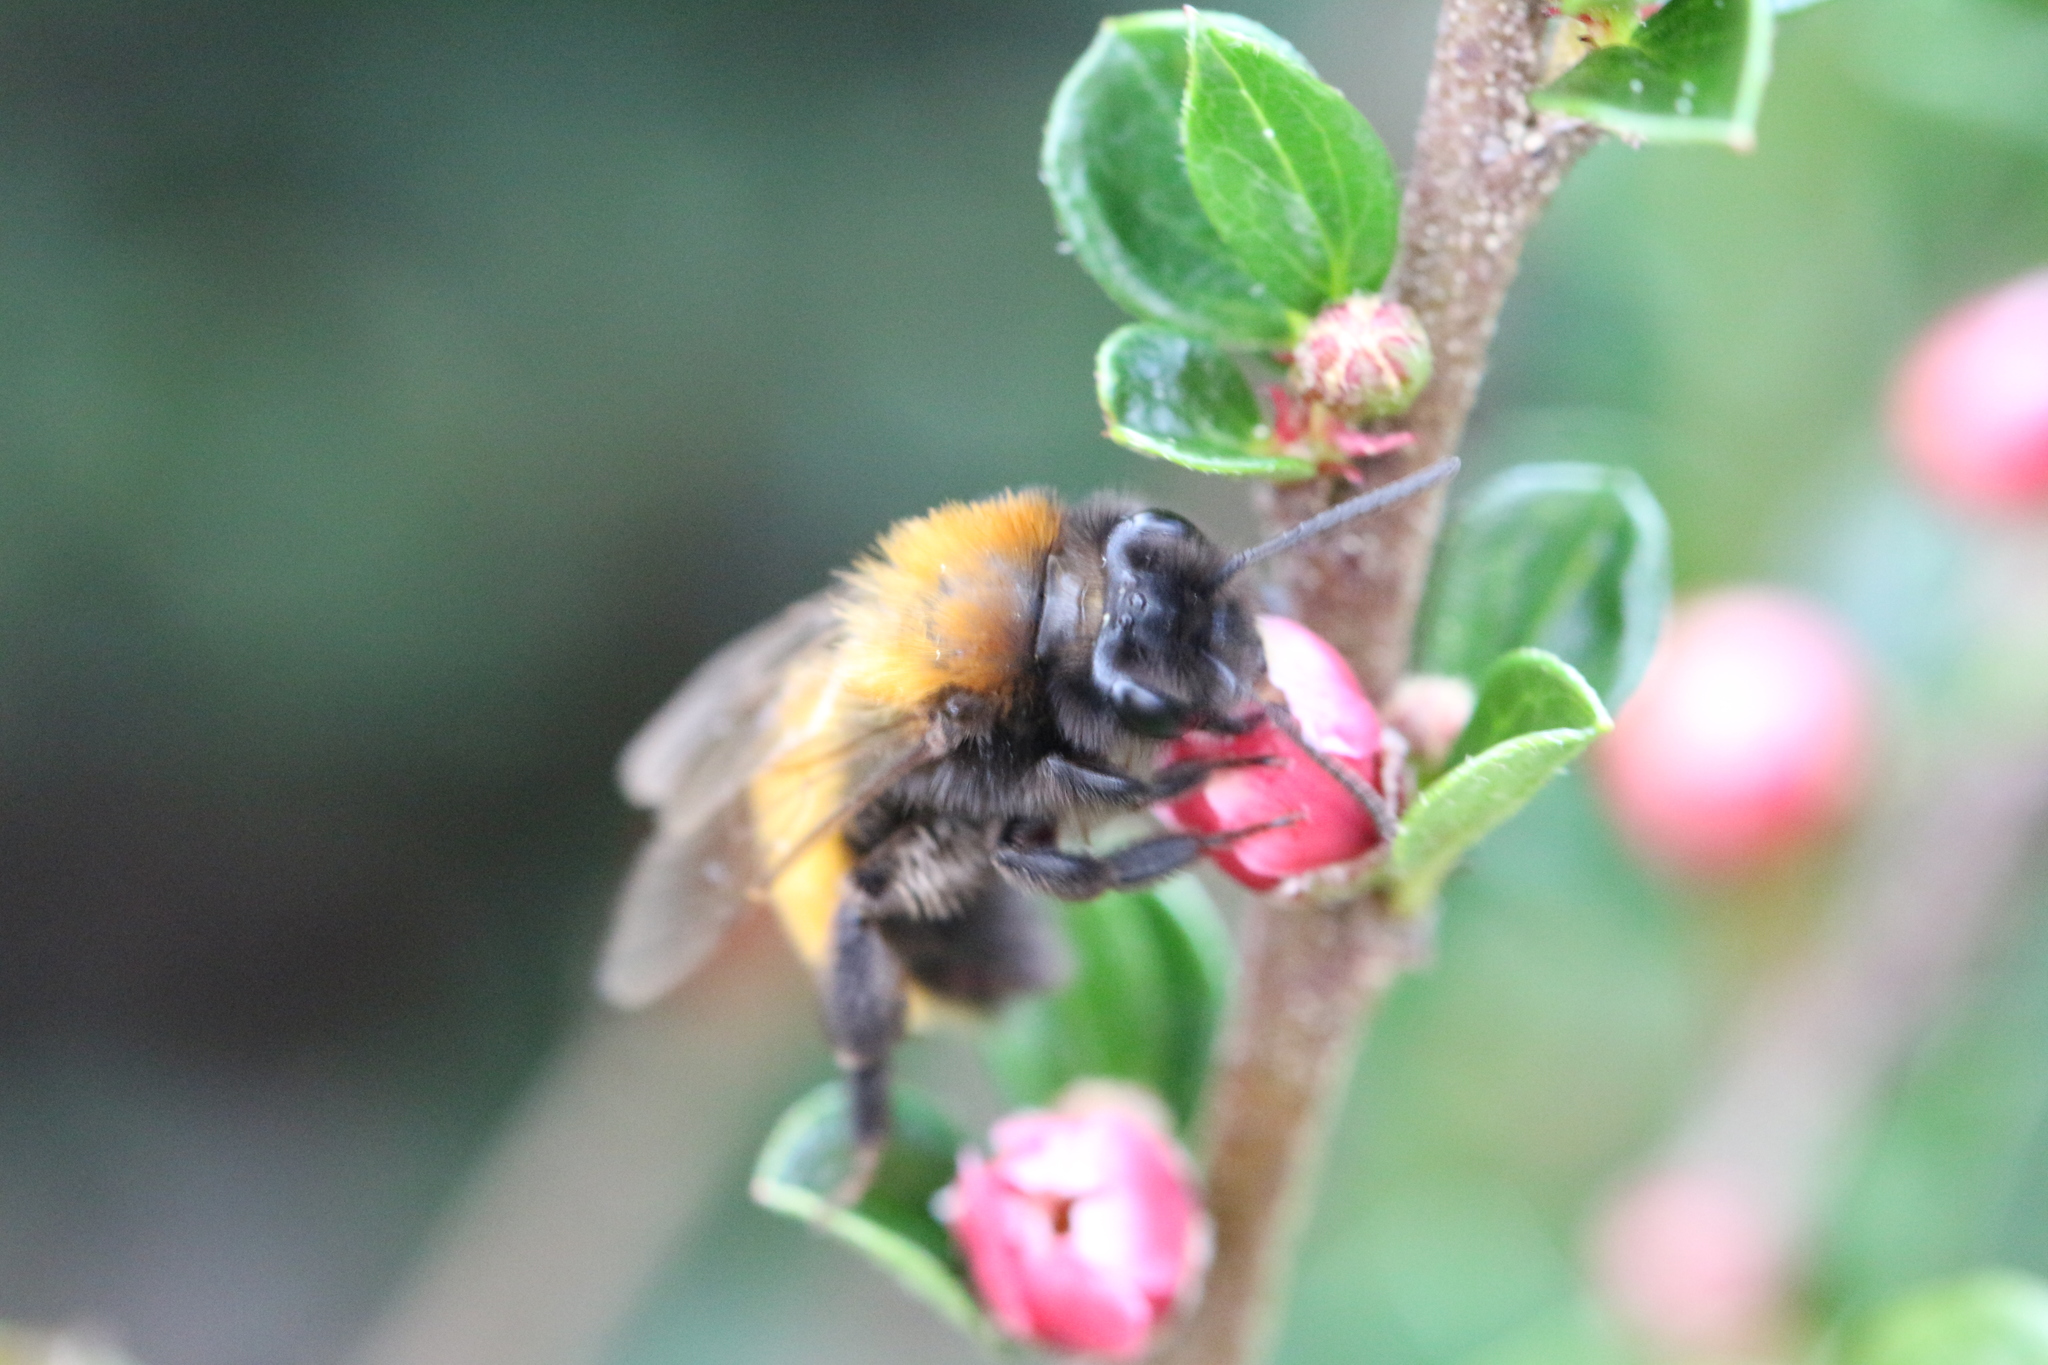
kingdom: Animalia
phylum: Arthropoda
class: Insecta
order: Hymenoptera
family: Andrenidae
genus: Andrena
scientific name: Andrena fulva
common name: Tawny mining bee
